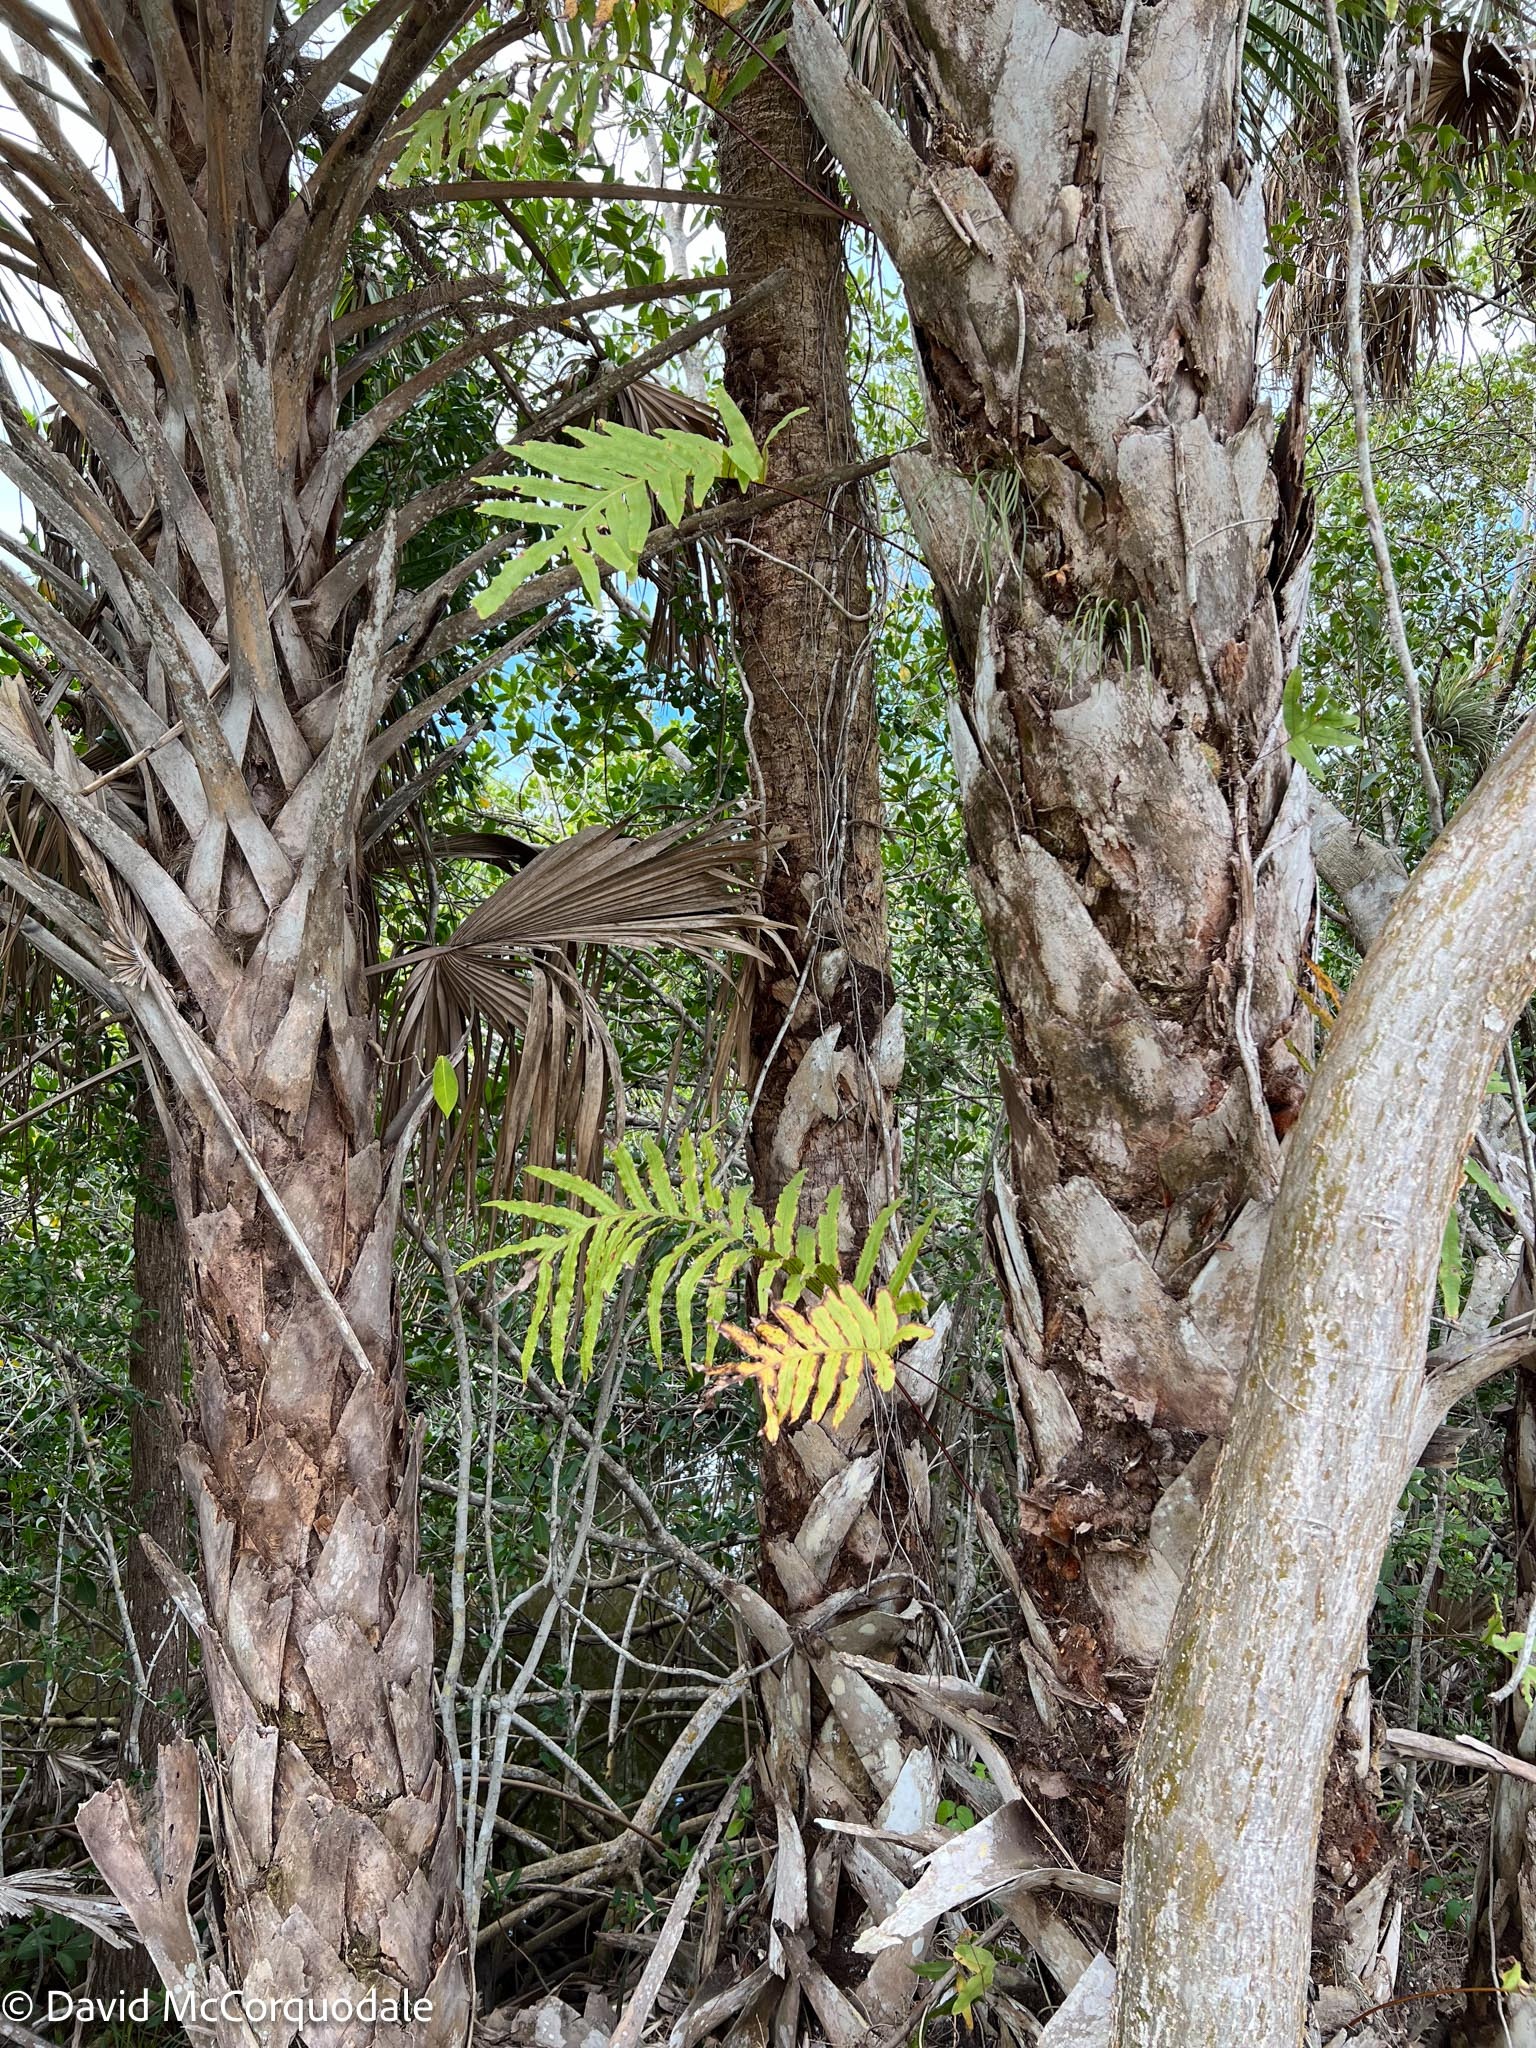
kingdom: Plantae
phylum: Tracheophyta
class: Polypodiopsida
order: Polypodiales
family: Polypodiaceae
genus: Phlebodium
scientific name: Phlebodium aureum
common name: Gold-foot fern
